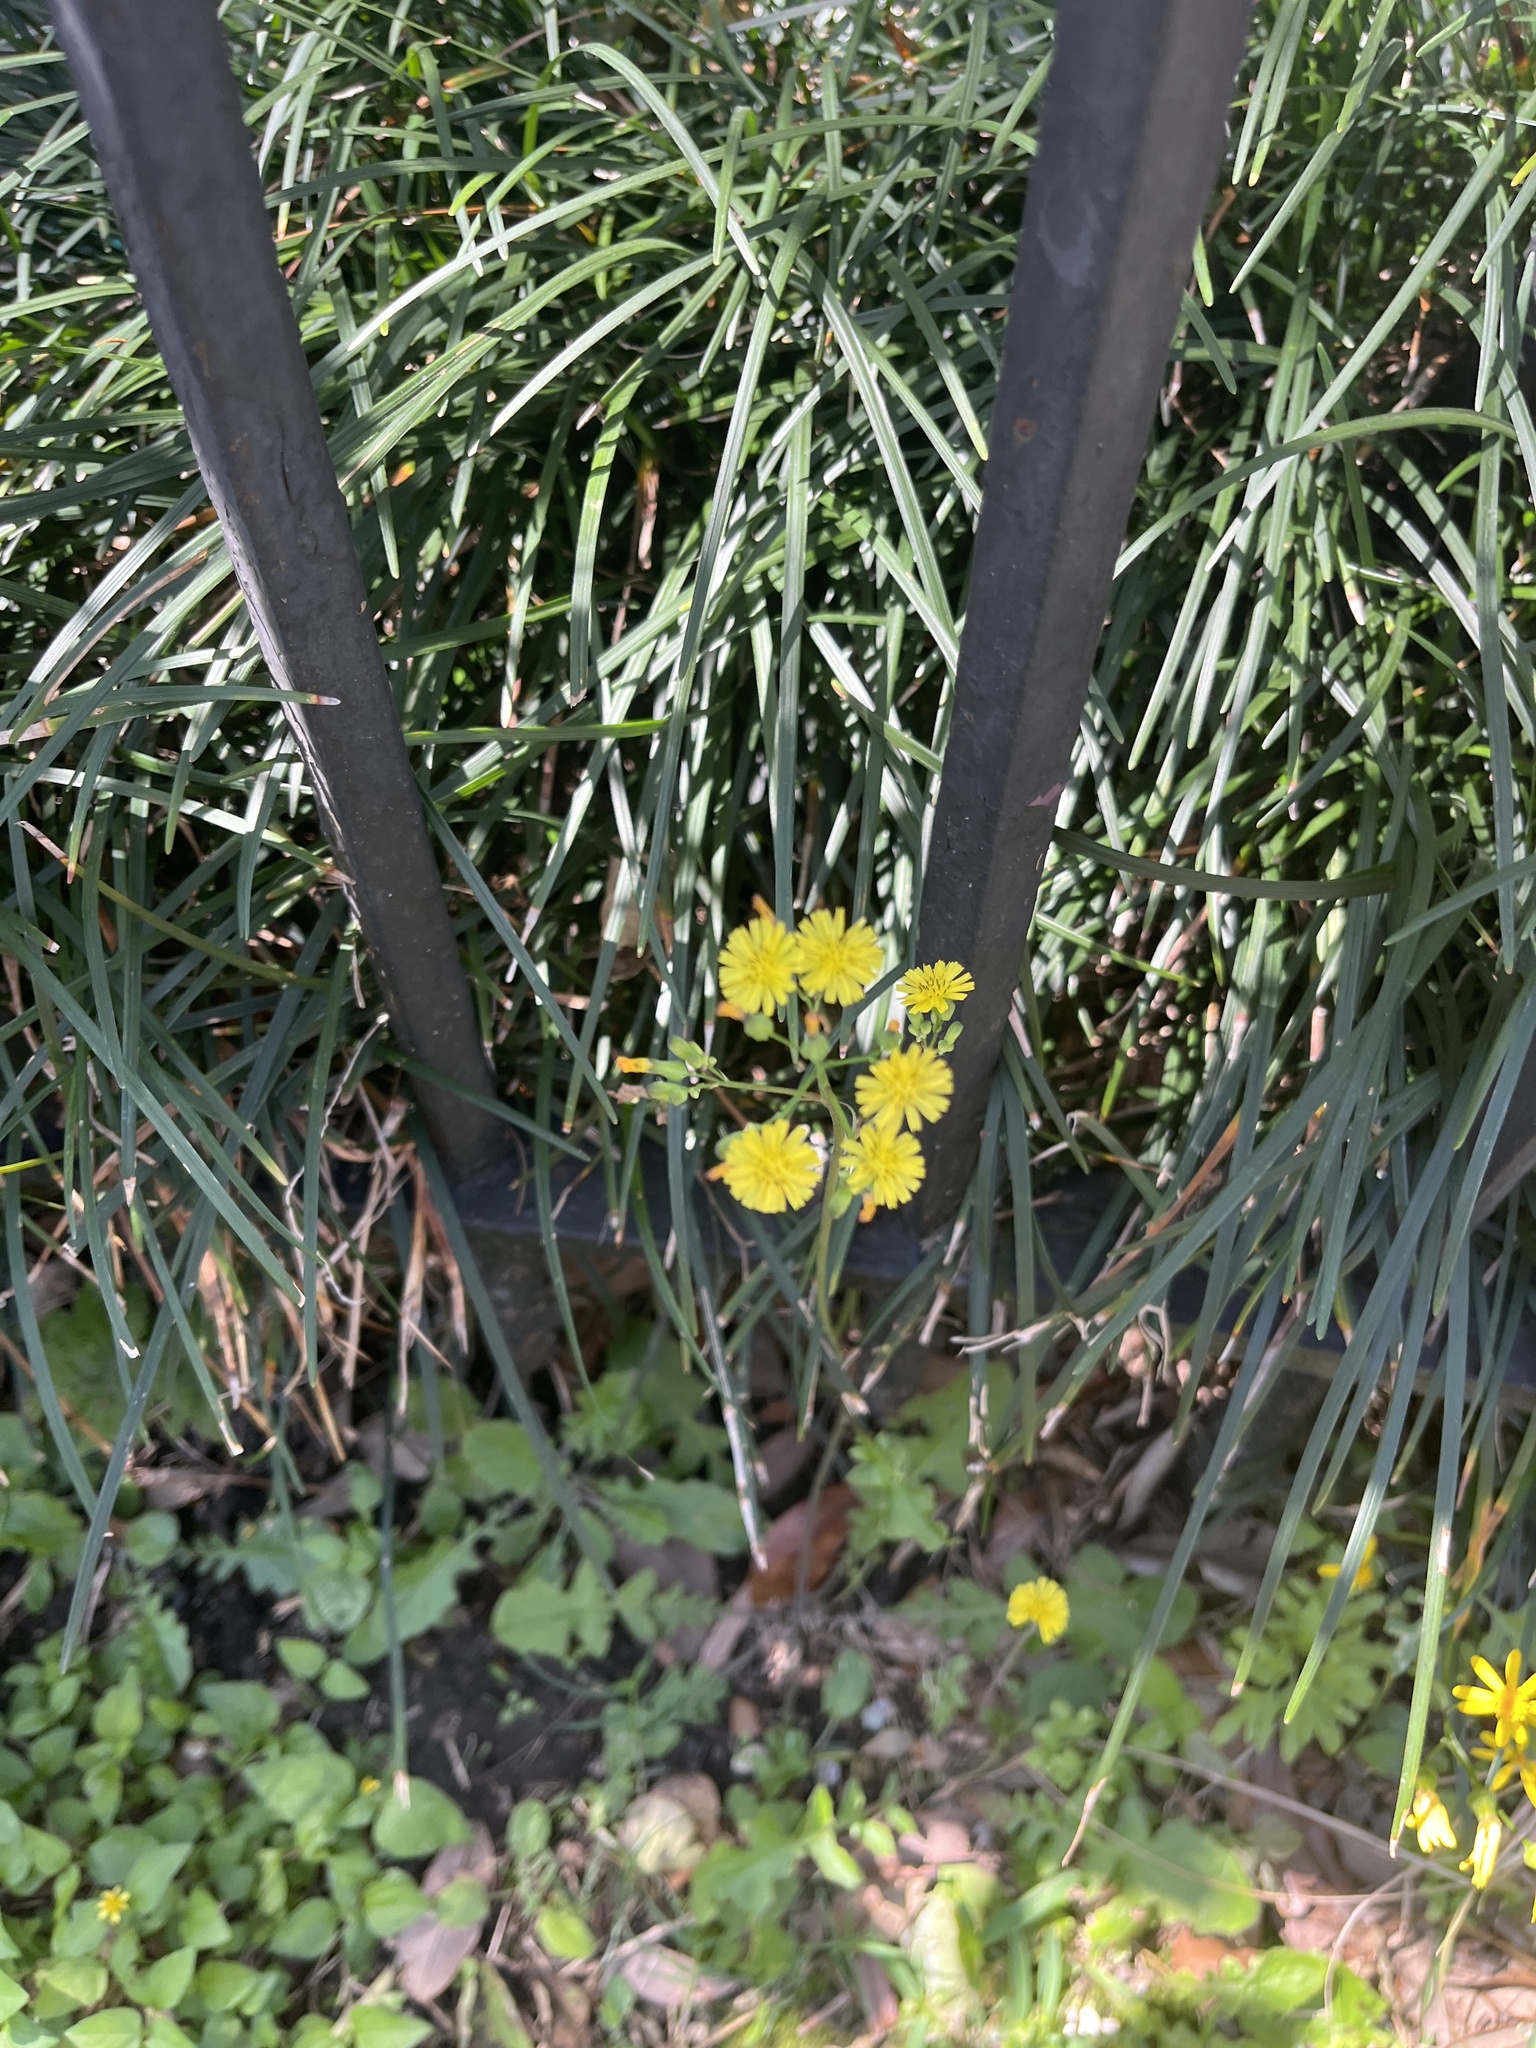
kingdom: Plantae
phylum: Tracheophyta
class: Magnoliopsida
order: Asterales
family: Asteraceae
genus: Youngia
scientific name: Youngia japonica
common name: Oriental false hawksbeard
